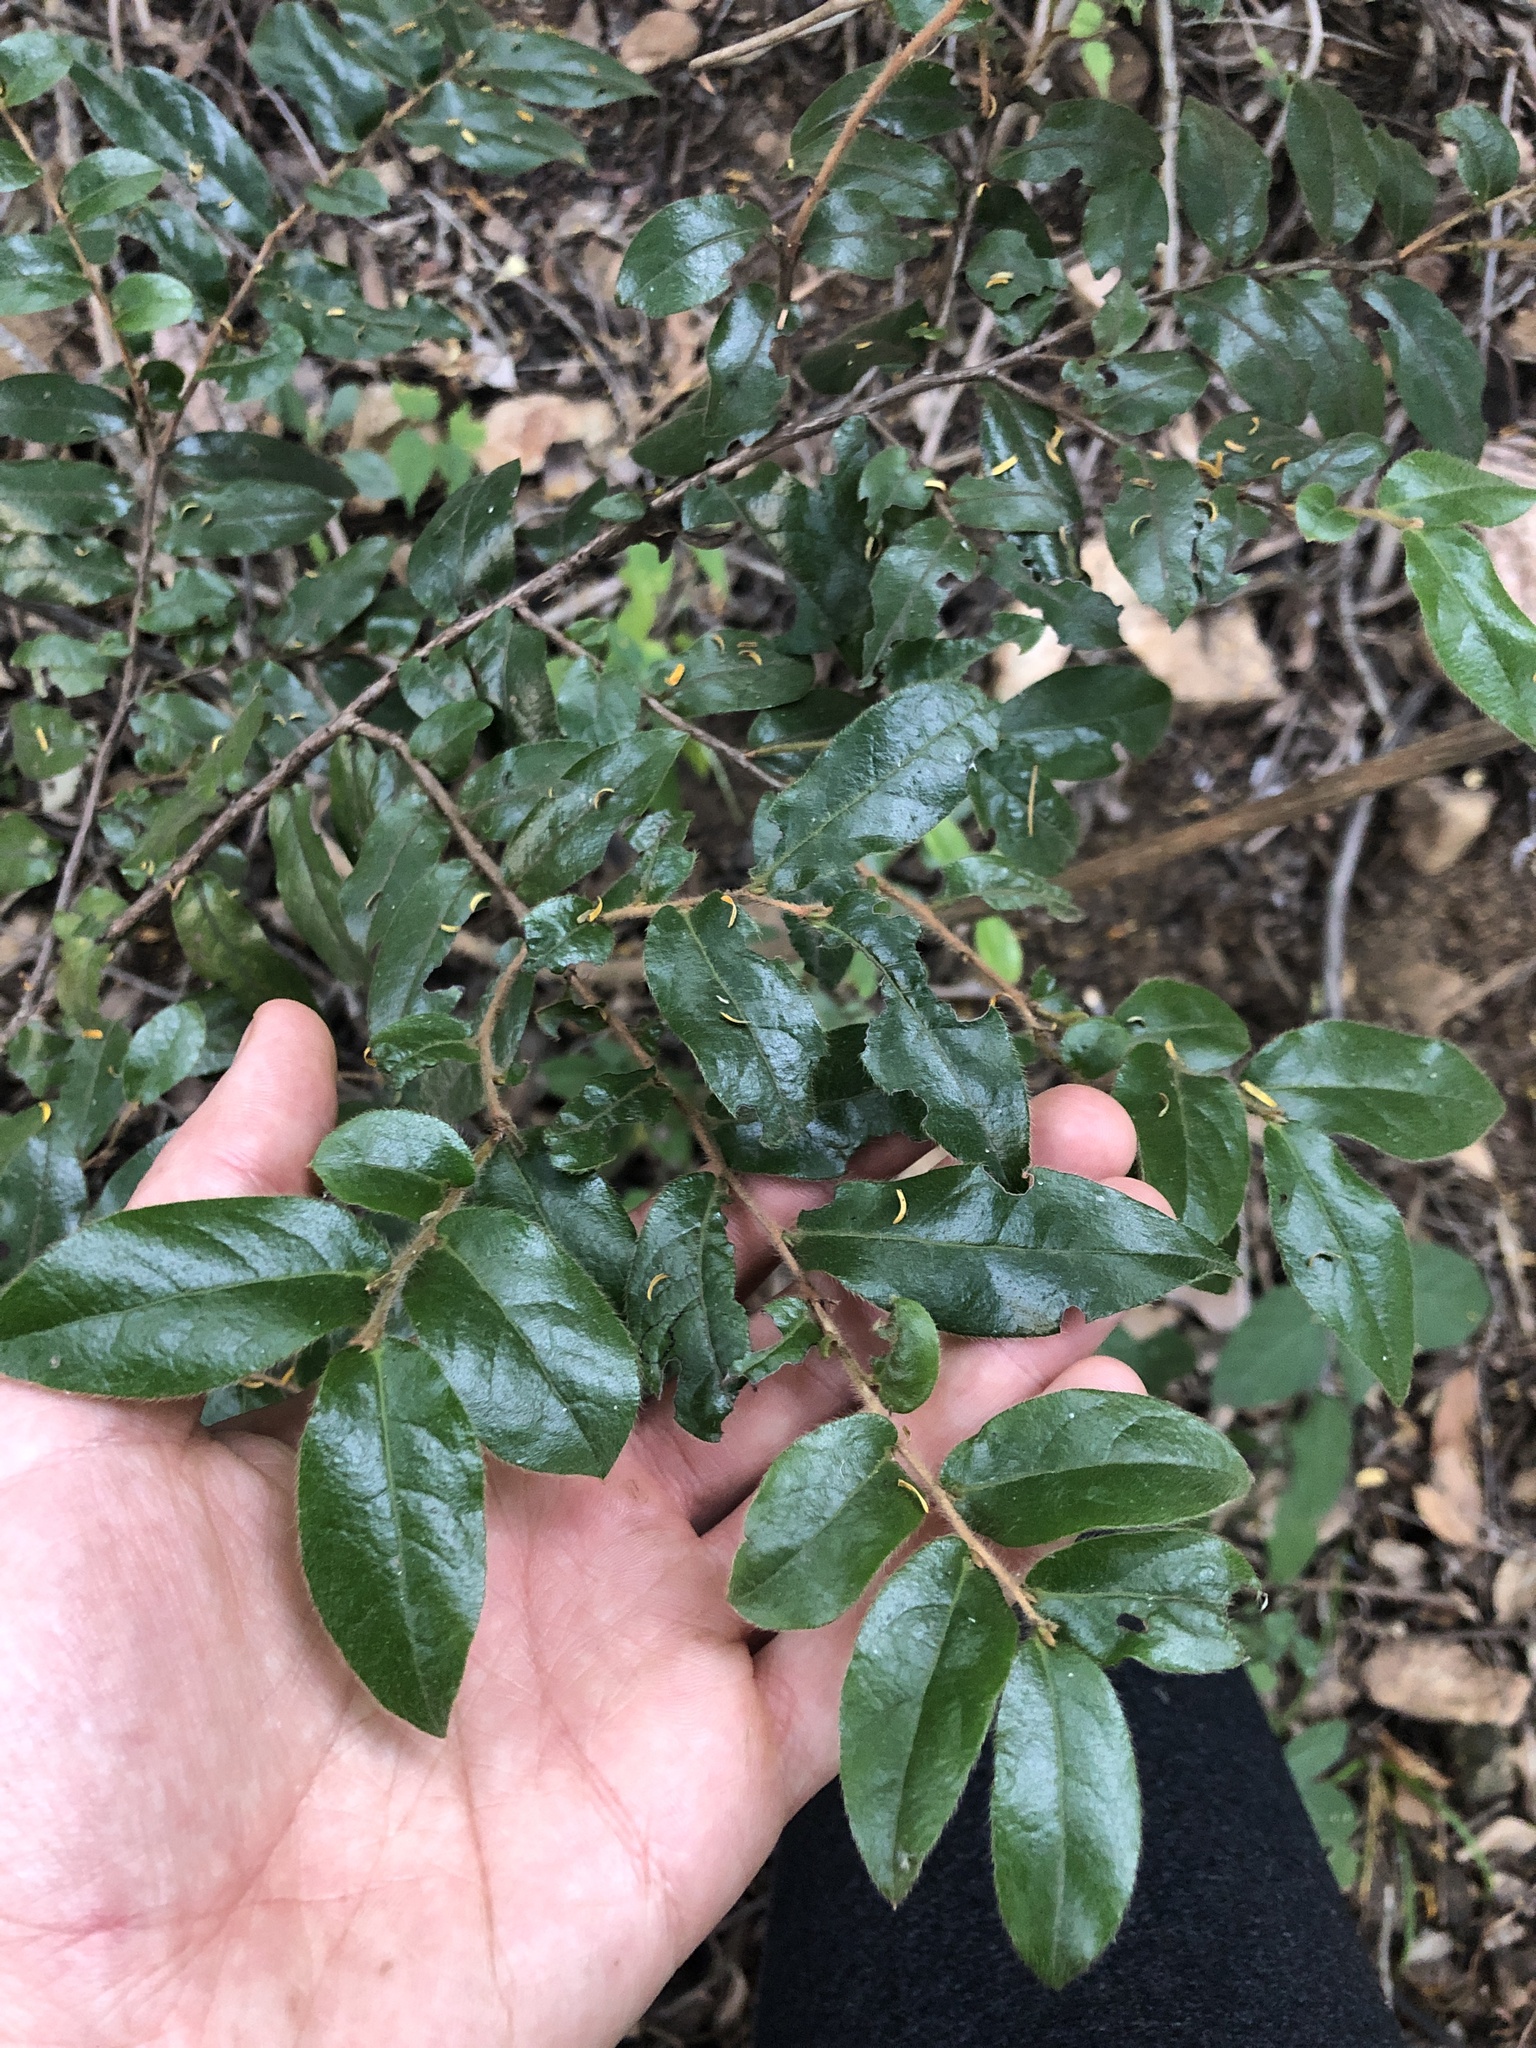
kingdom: Plantae
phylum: Tracheophyta
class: Magnoliopsida
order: Ericales
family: Ebenaceae
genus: Diospyros
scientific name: Diospyros whyteana
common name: Bladder-nut
